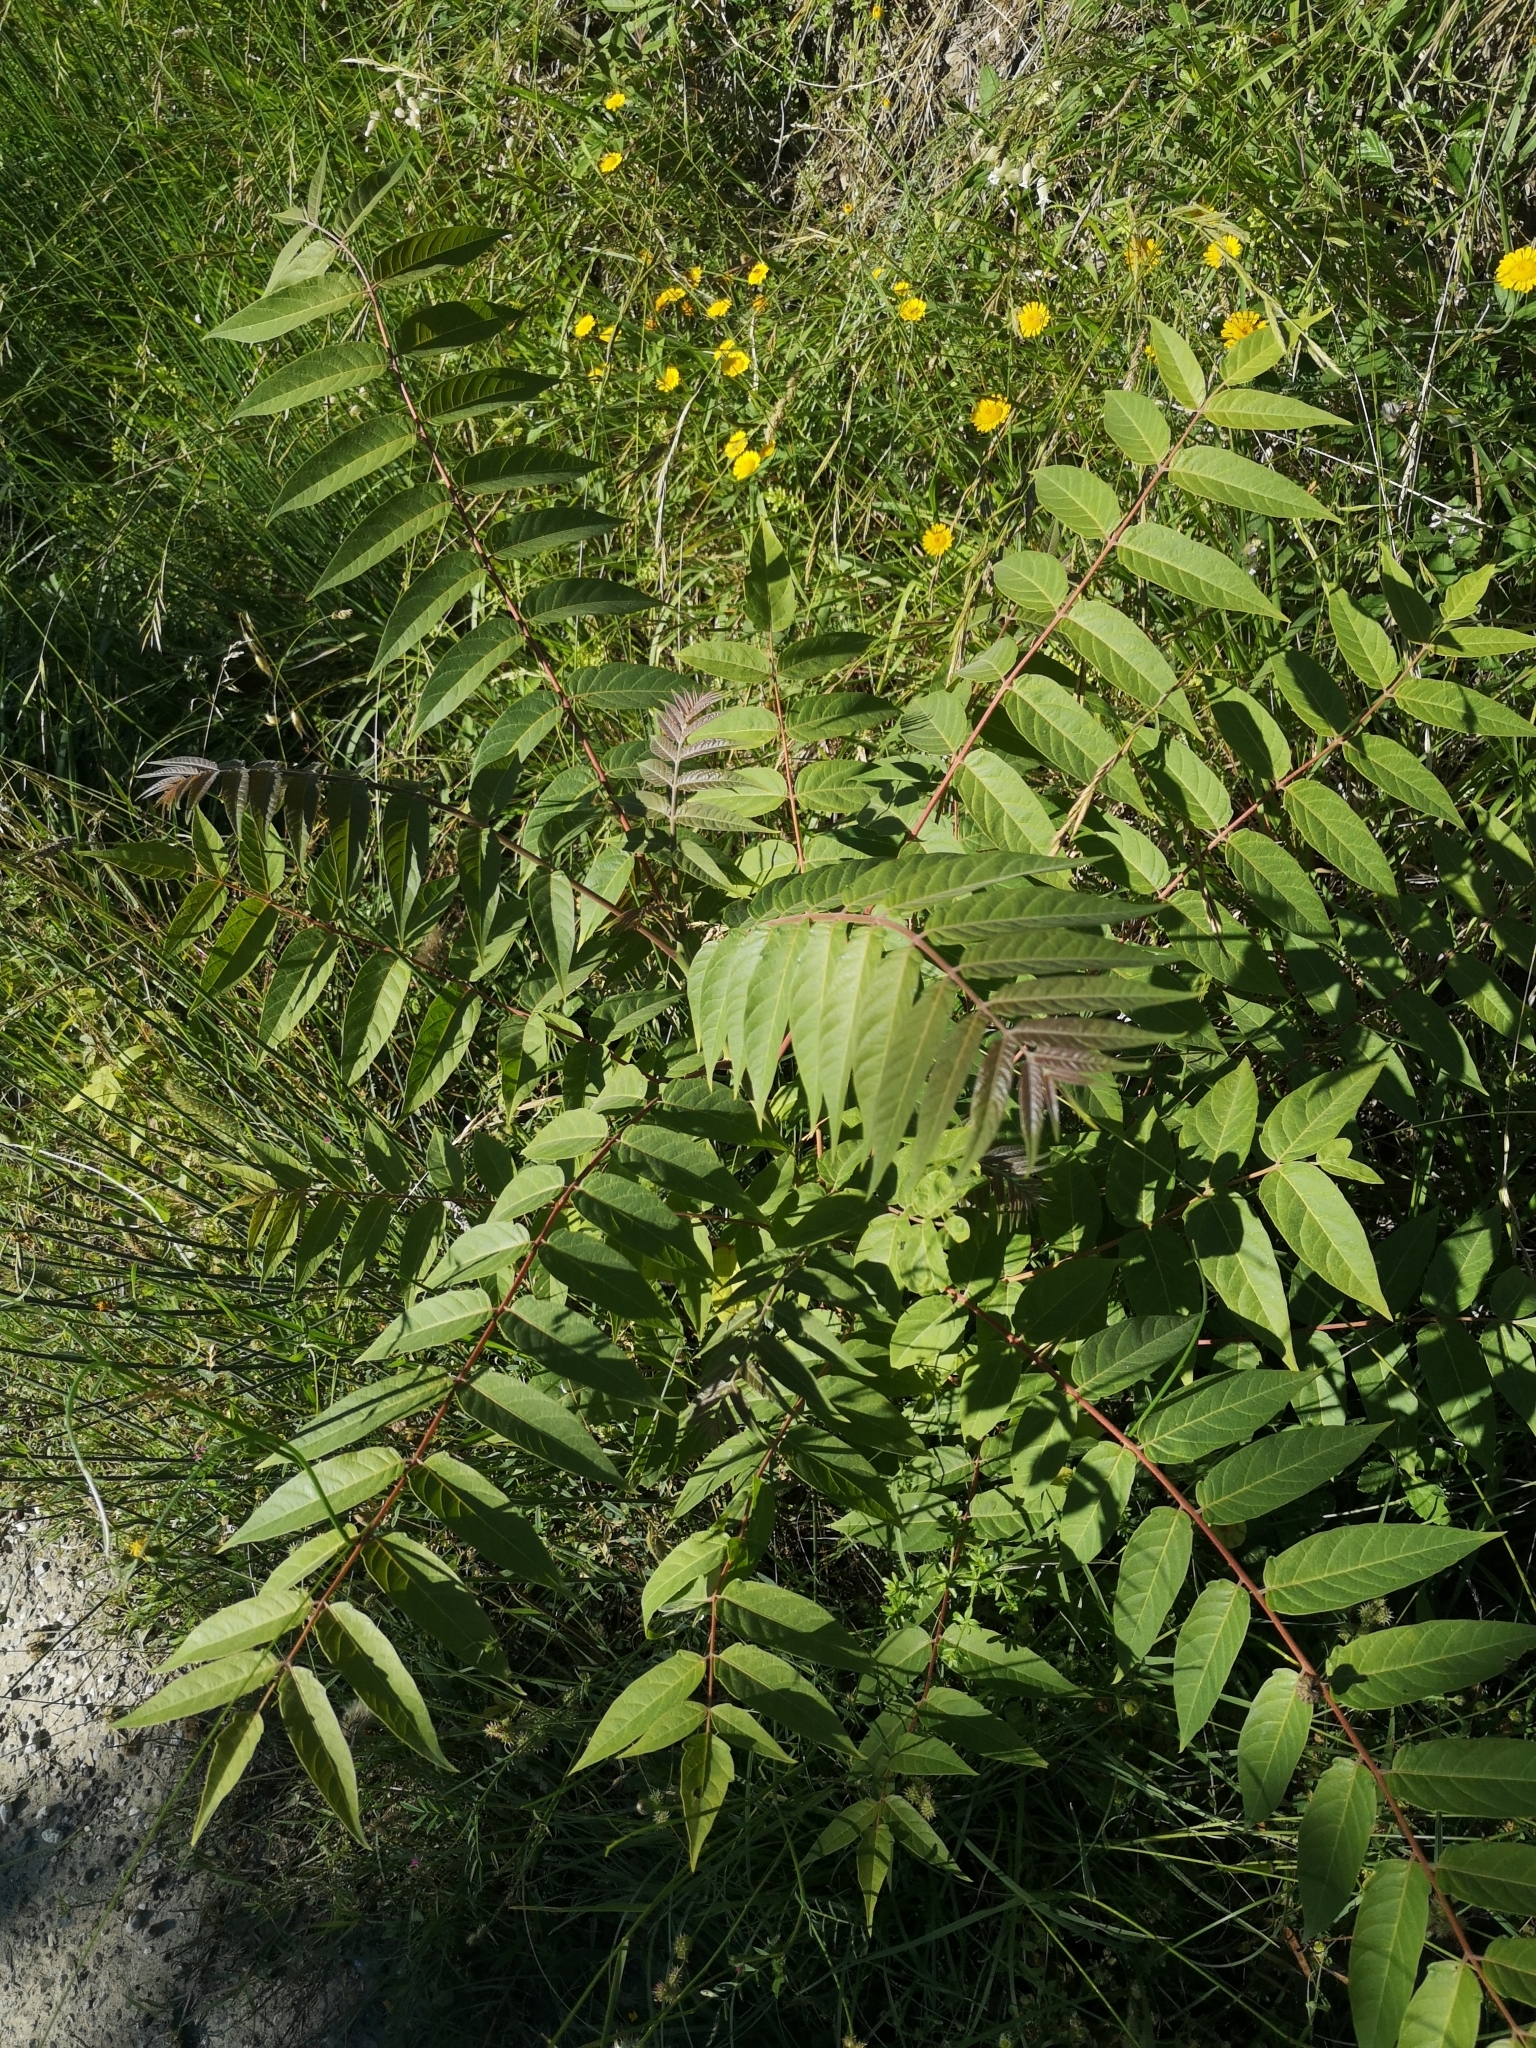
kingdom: Plantae
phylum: Tracheophyta
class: Magnoliopsida
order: Sapindales
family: Simaroubaceae
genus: Ailanthus
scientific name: Ailanthus altissima
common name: Tree-of-heaven
